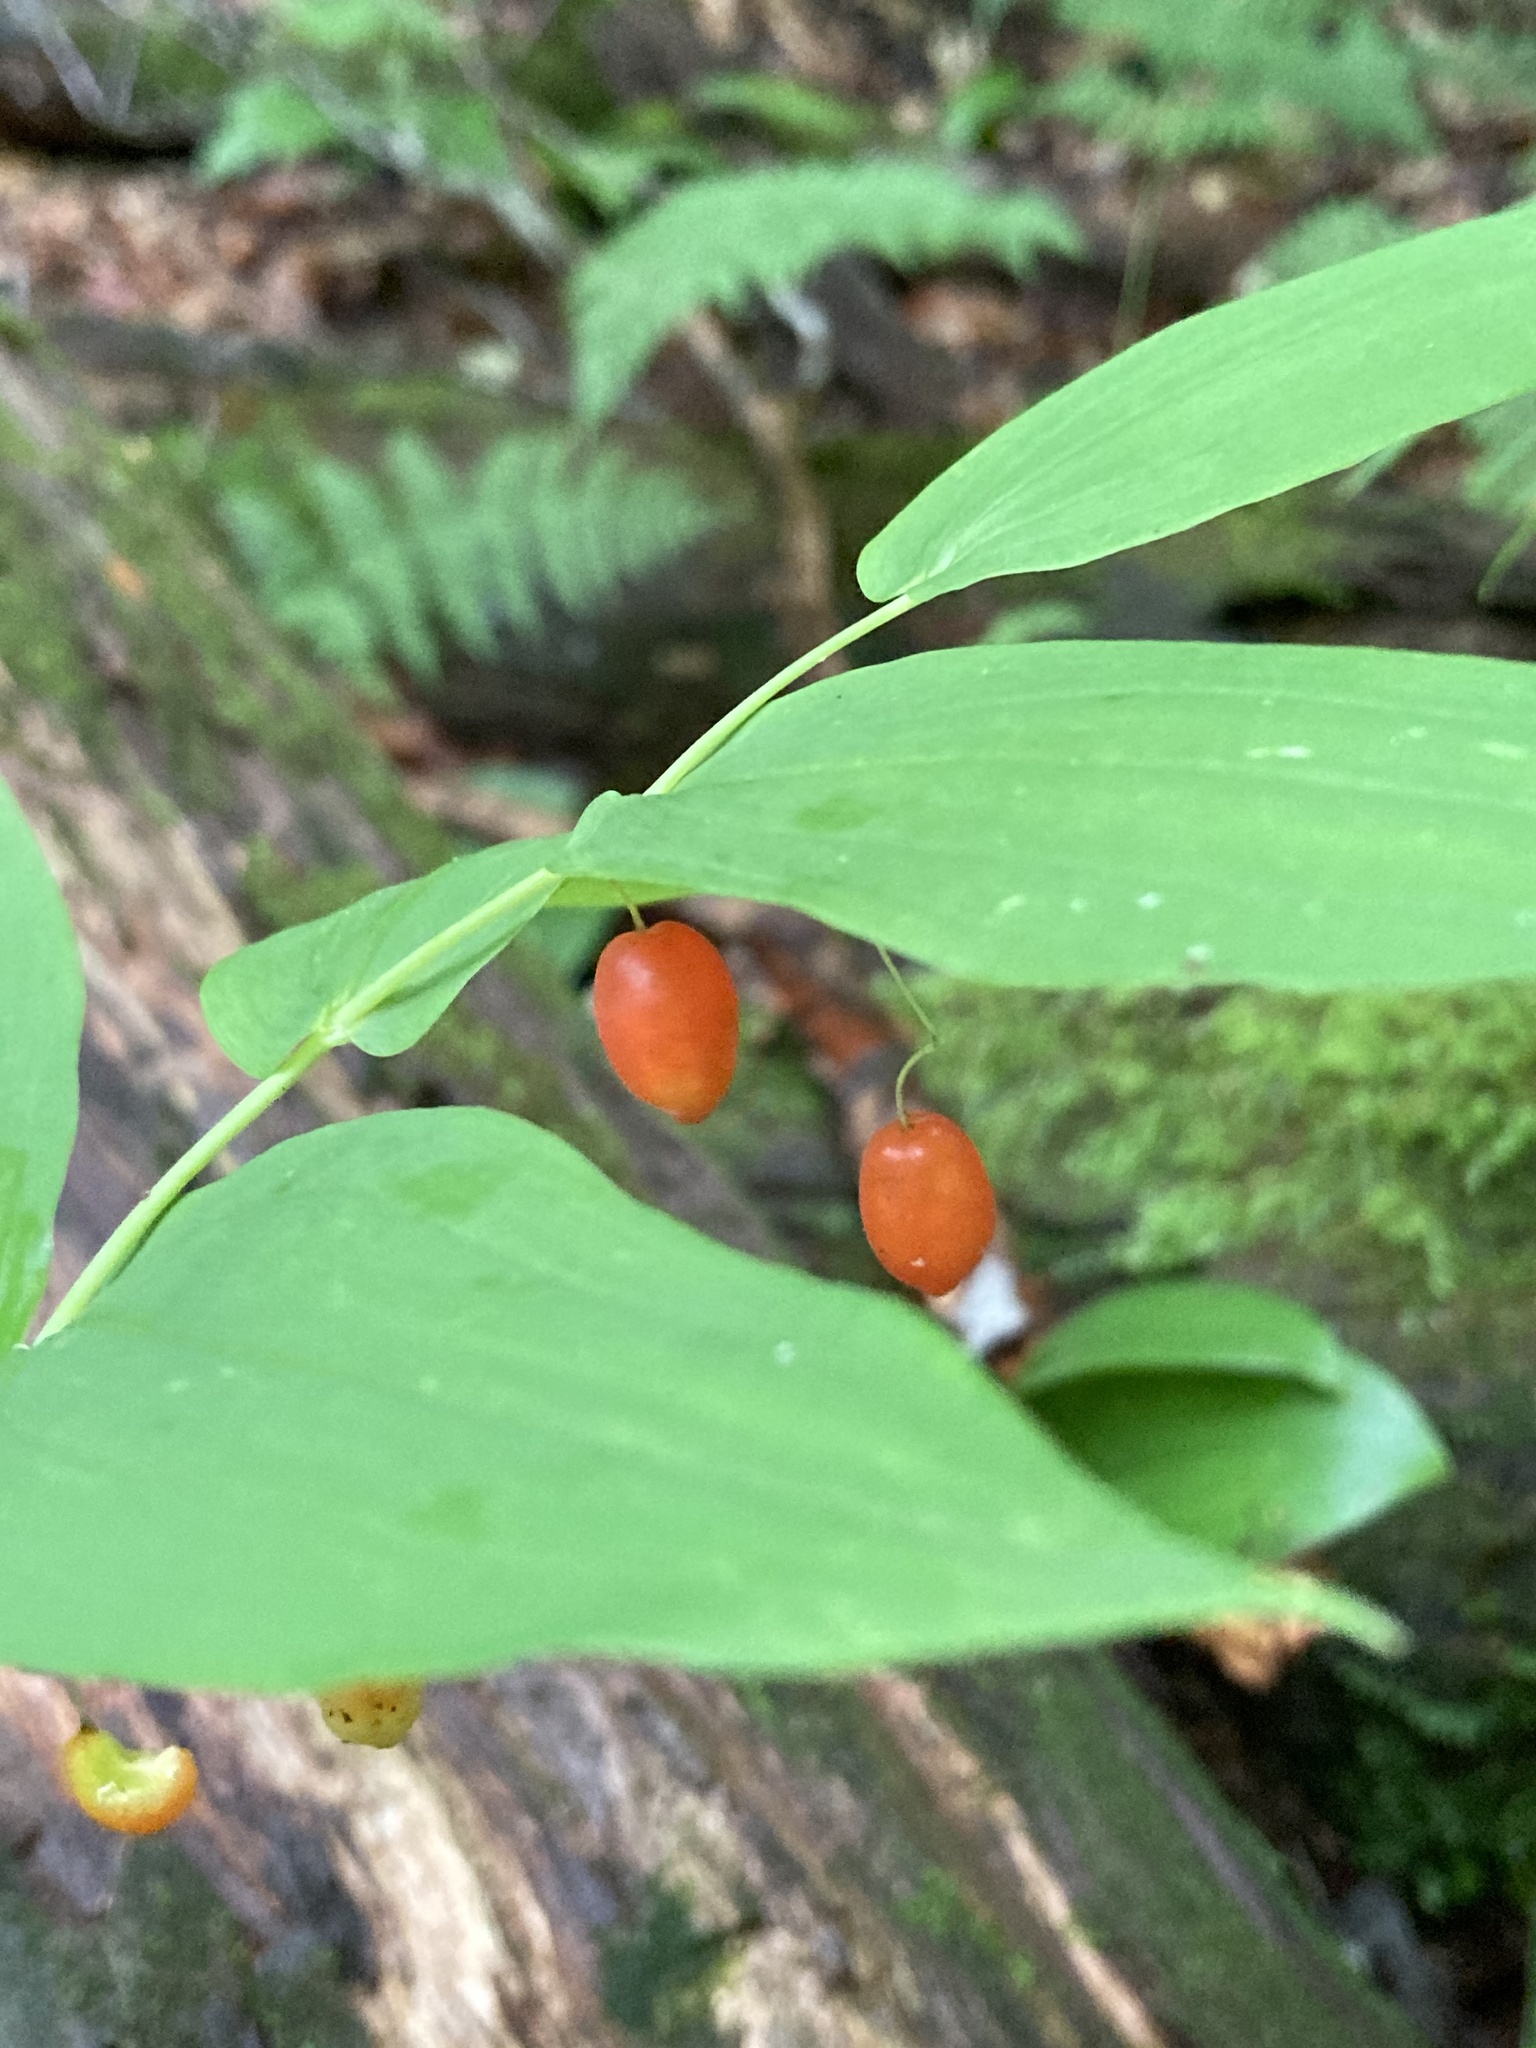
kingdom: Plantae
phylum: Tracheophyta
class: Liliopsida
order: Liliales
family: Liliaceae
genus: Streptopus
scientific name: Streptopus amplexifolius
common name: Clasp twisted stalk
